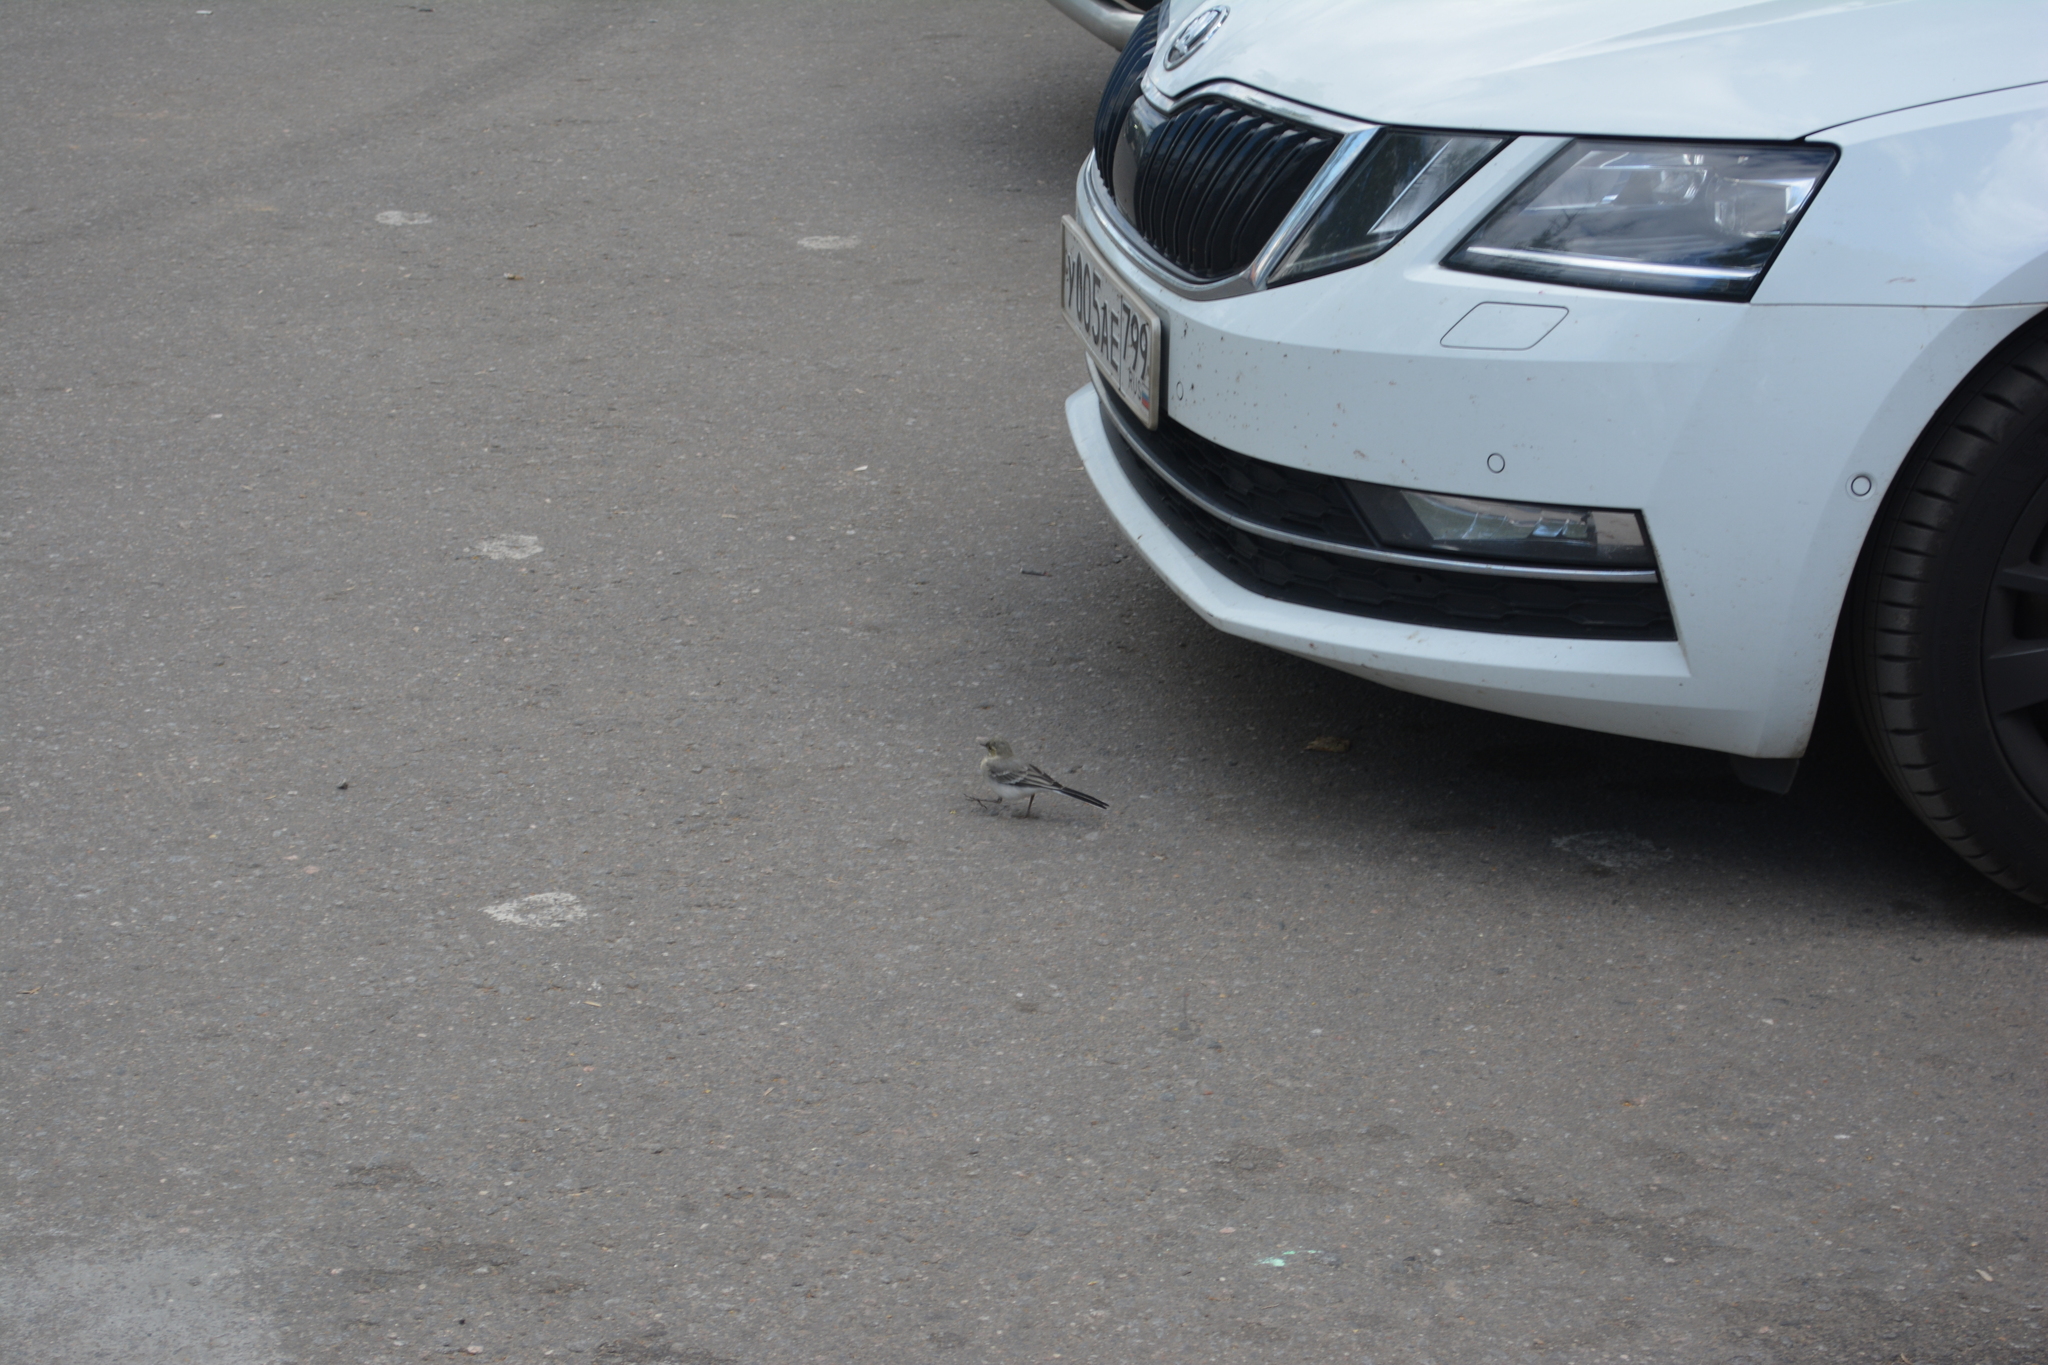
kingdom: Animalia
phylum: Chordata
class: Aves
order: Passeriformes
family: Motacillidae
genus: Motacilla
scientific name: Motacilla alba
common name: White wagtail
